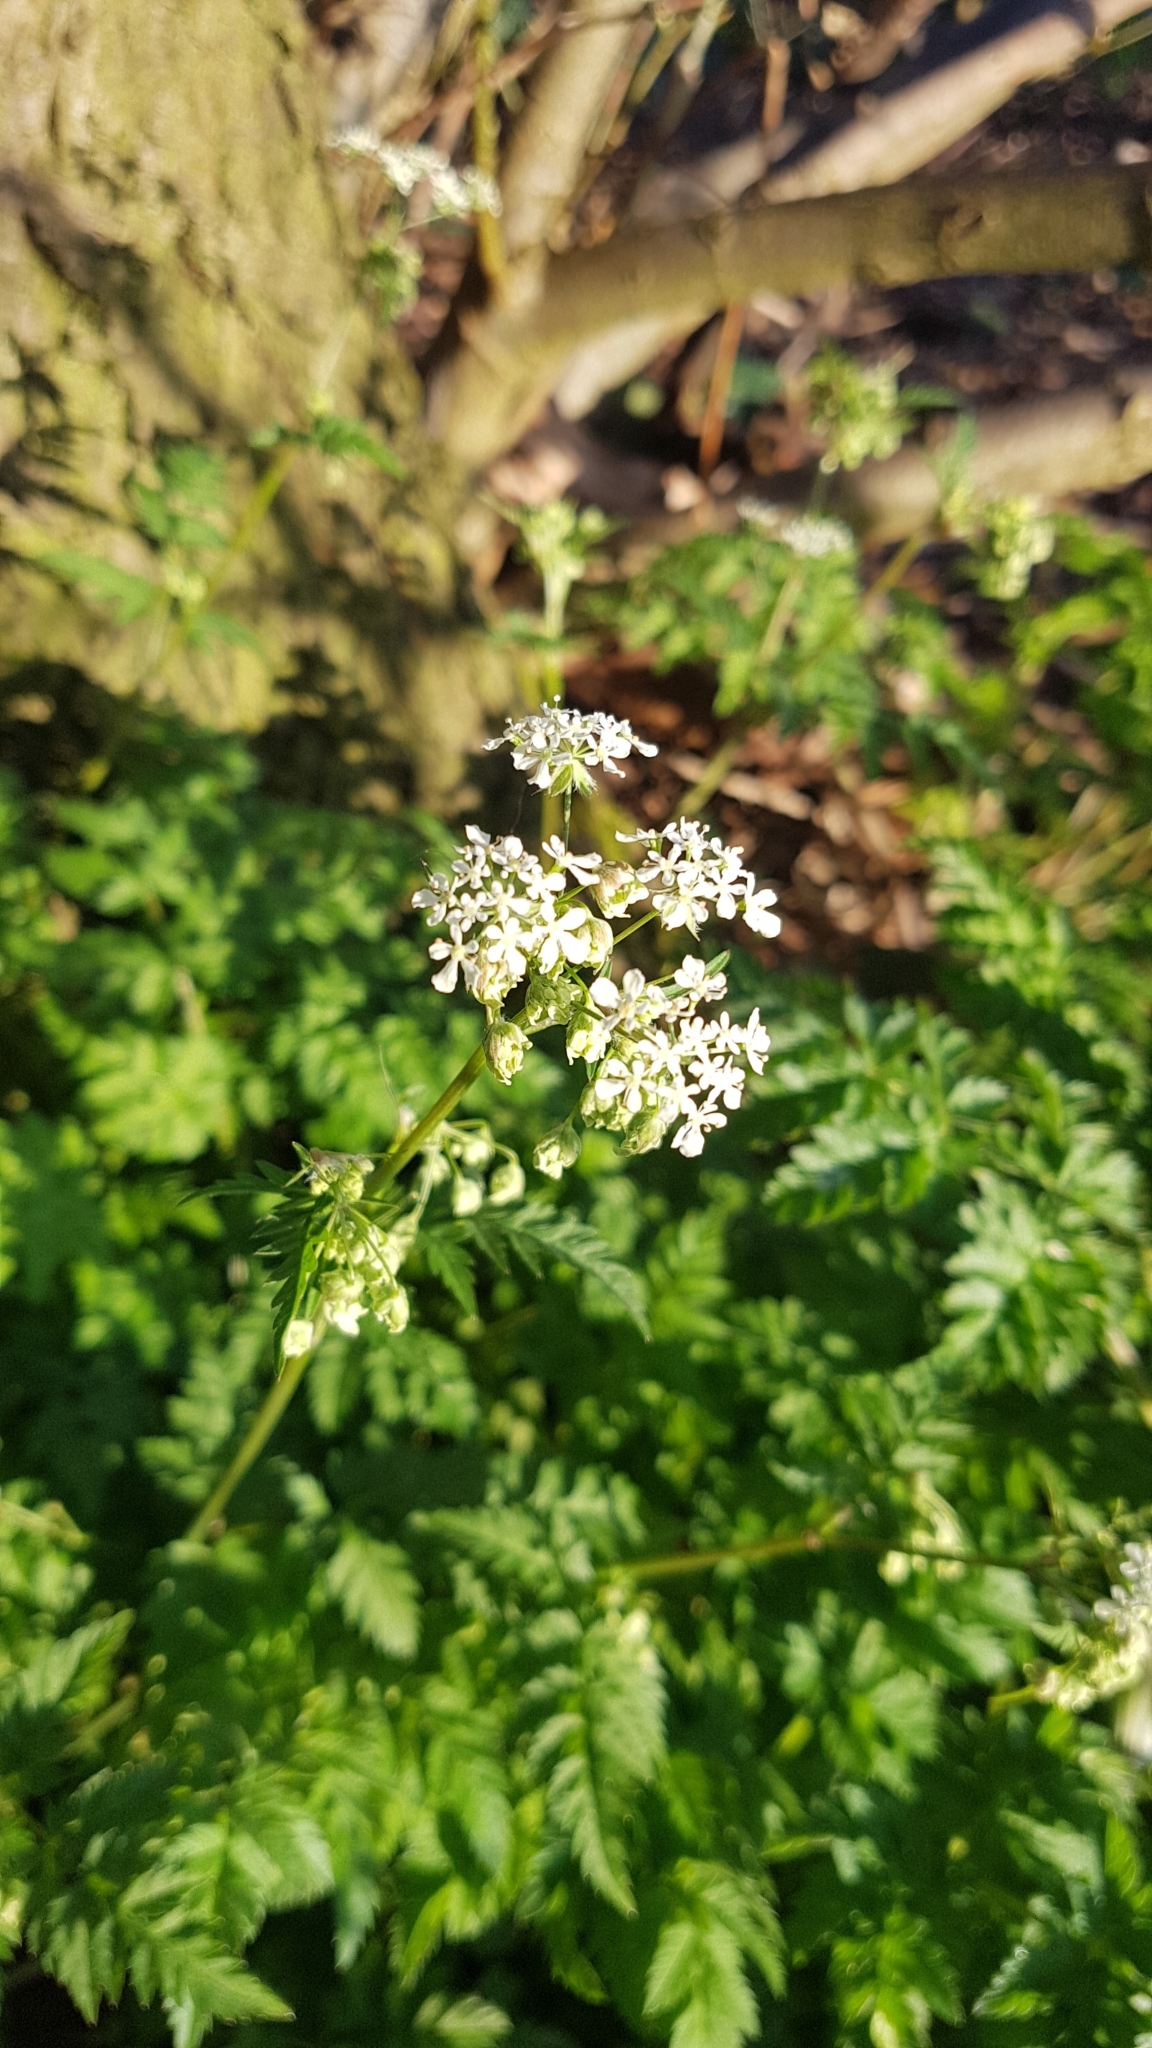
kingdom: Plantae
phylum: Tracheophyta
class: Magnoliopsida
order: Apiales
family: Apiaceae
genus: Anthriscus
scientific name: Anthriscus sylvestris
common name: Cow parsley
